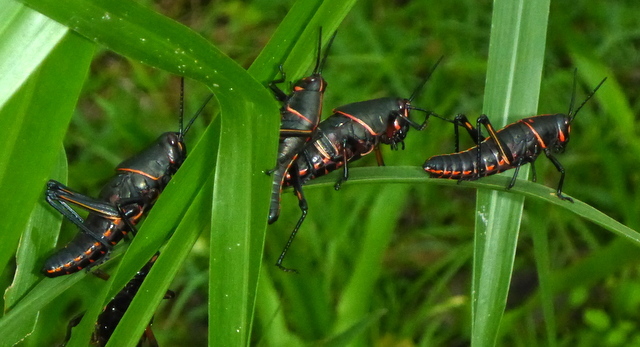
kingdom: Animalia
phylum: Arthropoda
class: Insecta
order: Orthoptera
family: Romaleidae
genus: Romalea
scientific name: Romalea microptera
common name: Eastern lubber grasshopper
